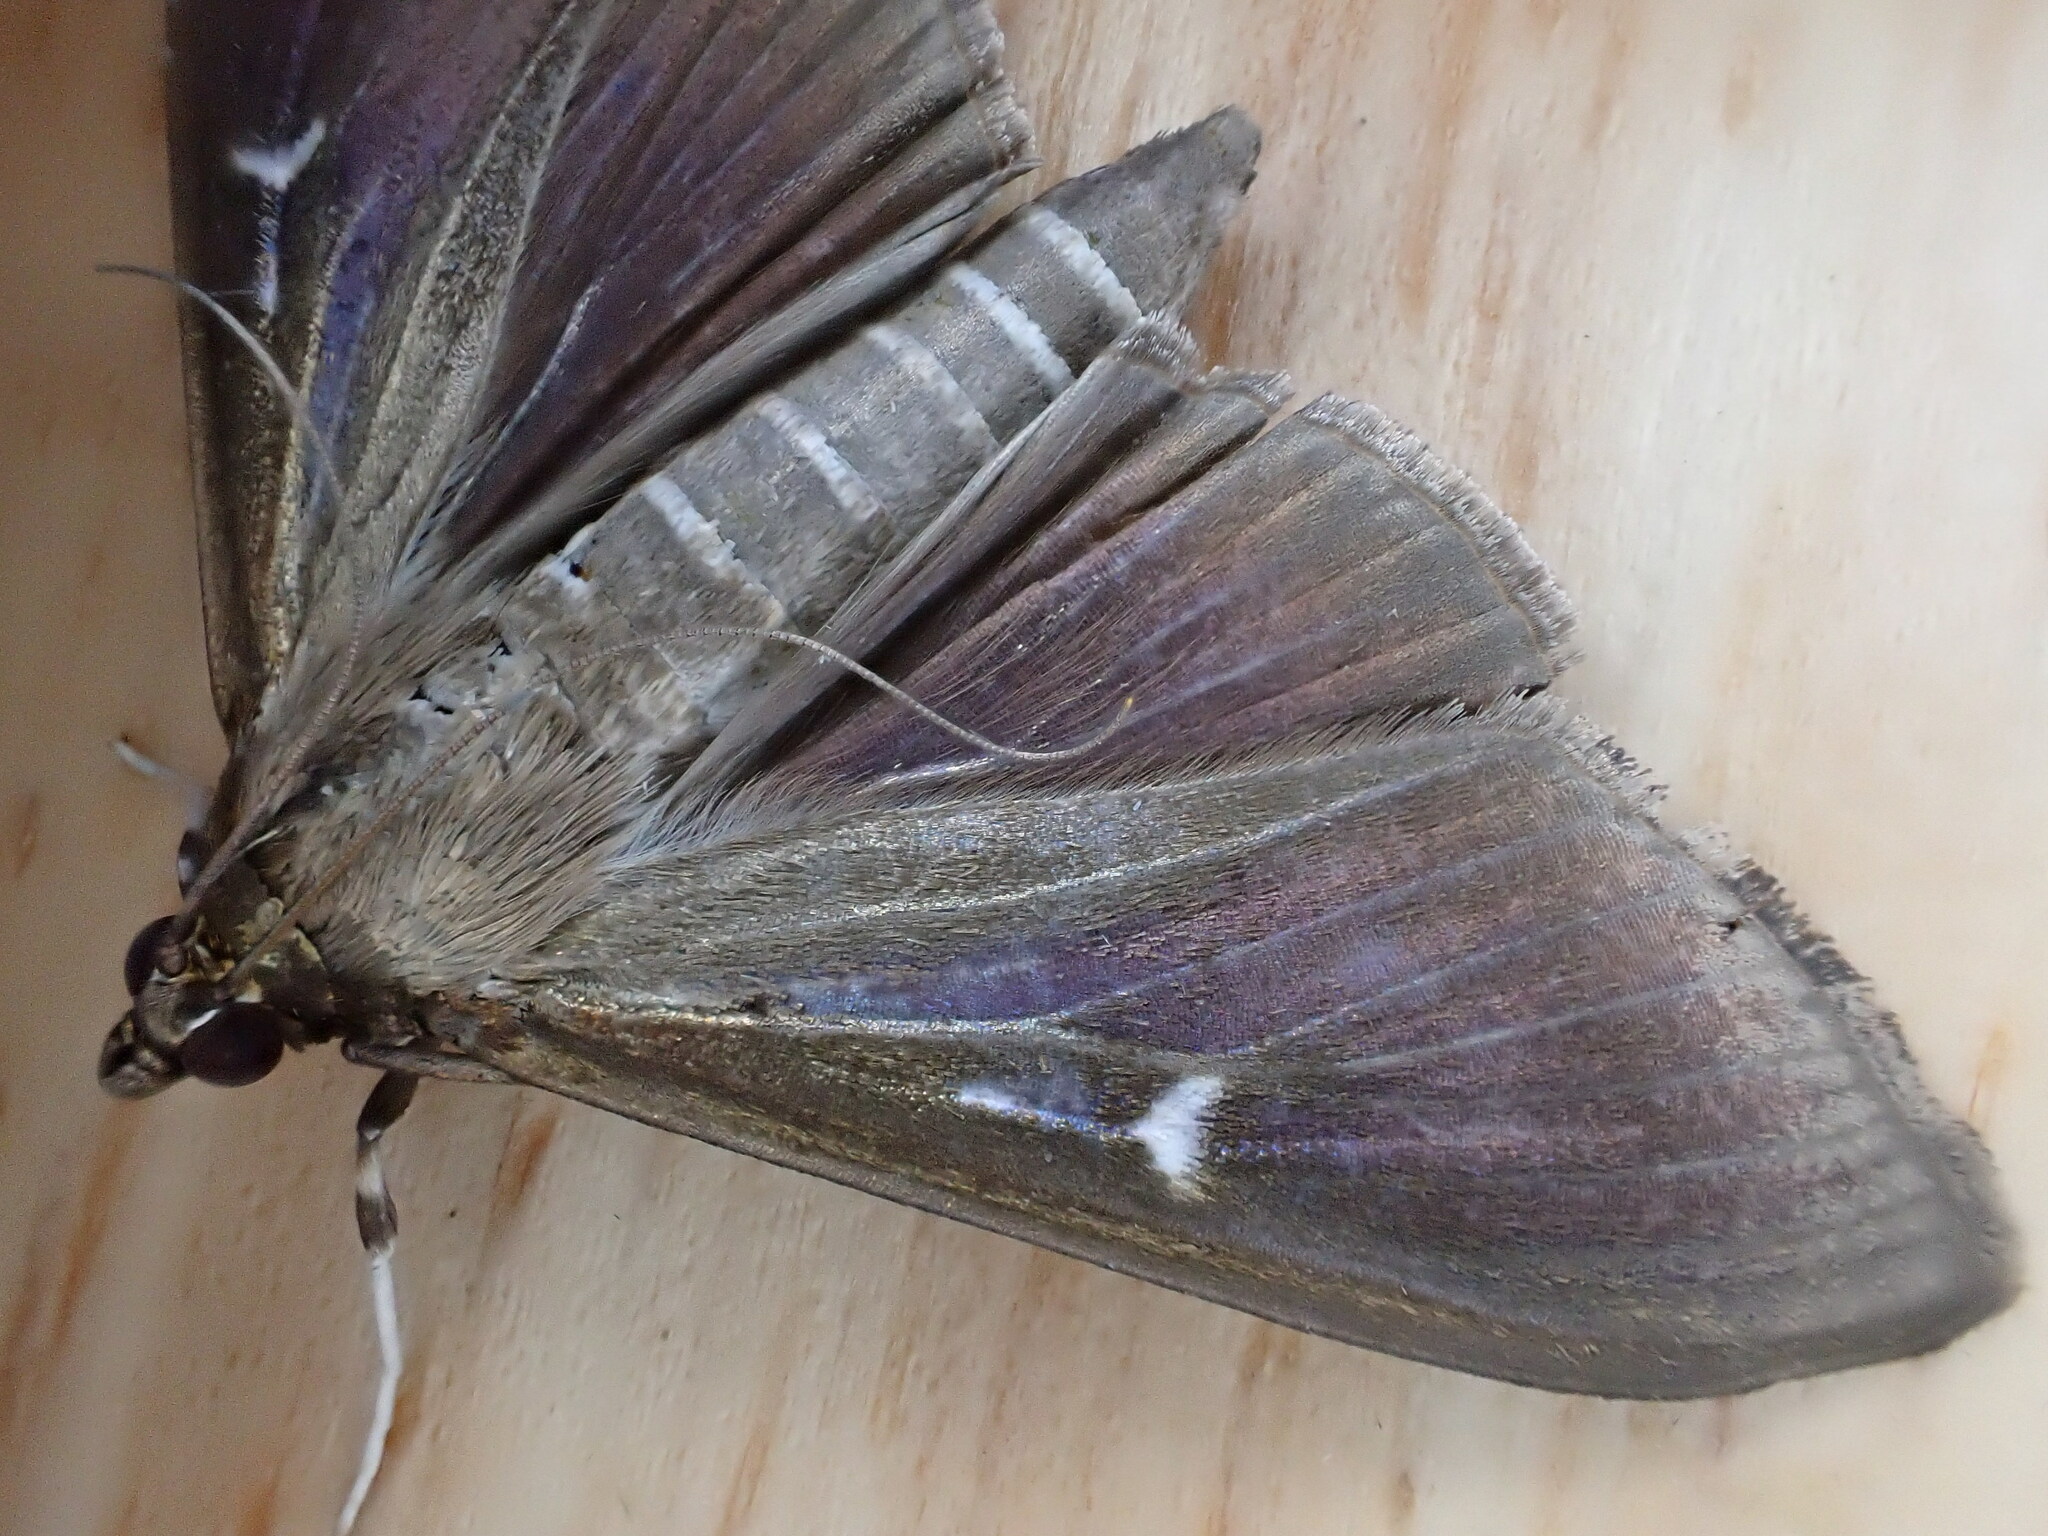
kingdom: Animalia
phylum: Arthropoda
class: Insecta
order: Lepidoptera
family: Crambidae
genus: Cydalima
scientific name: Cydalima perspectalis
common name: Box tree moth
